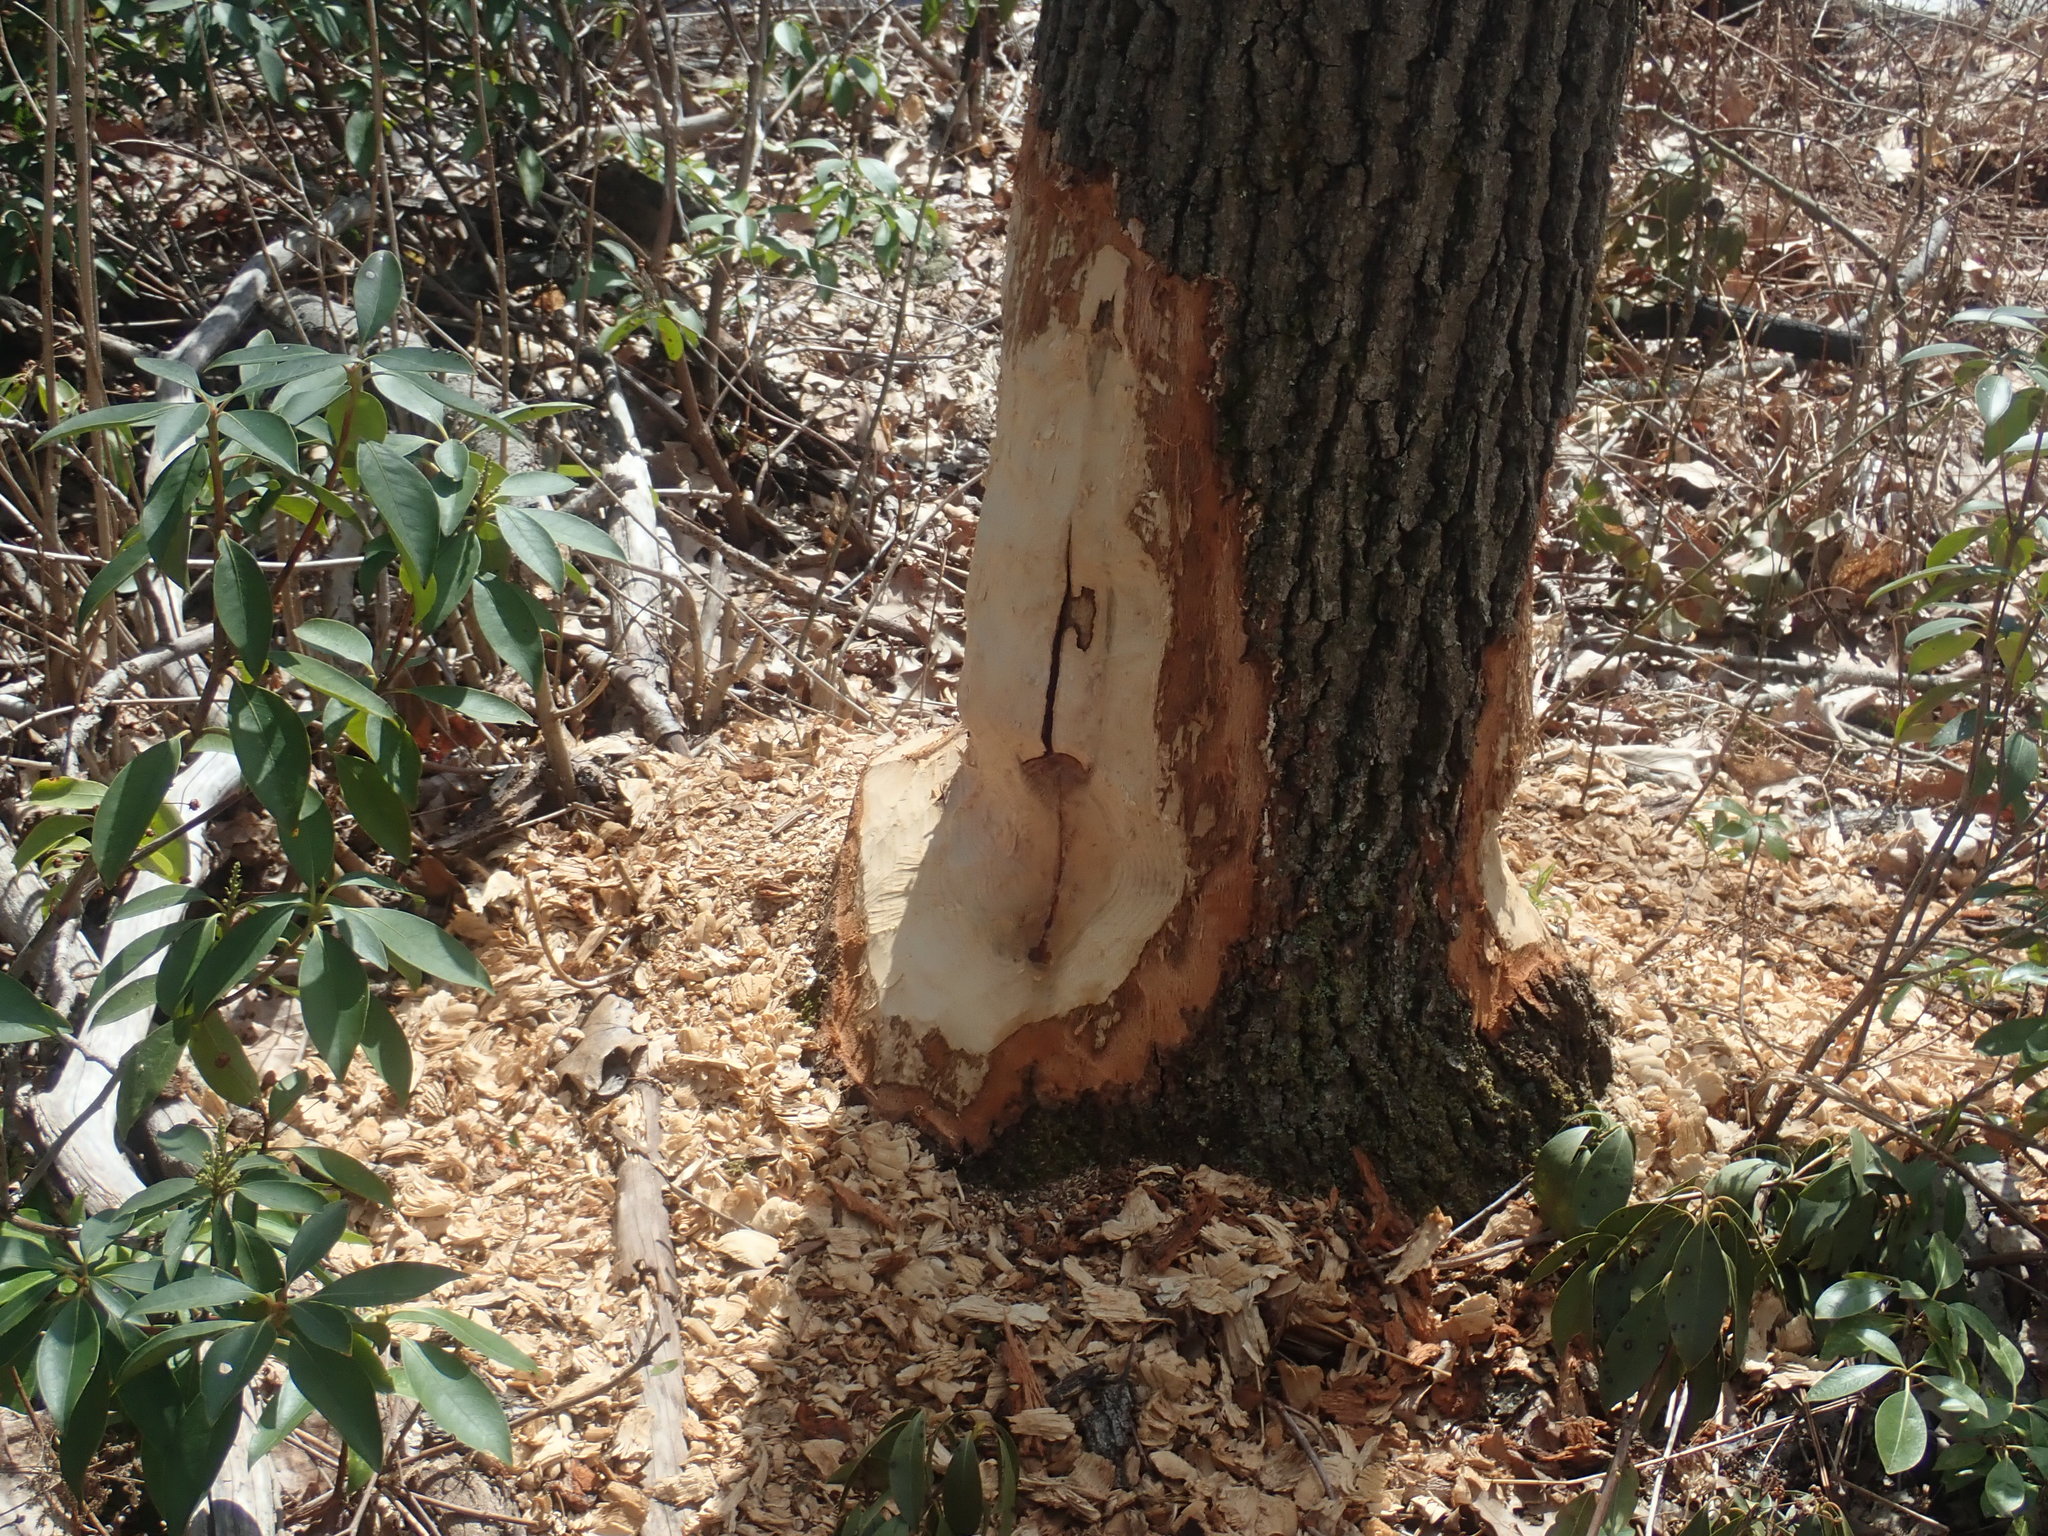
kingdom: Animalia
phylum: Chordata
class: Mammalia
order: Rodentia
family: Castoridae
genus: Castor
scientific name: Castor canadensis
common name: American beaver
